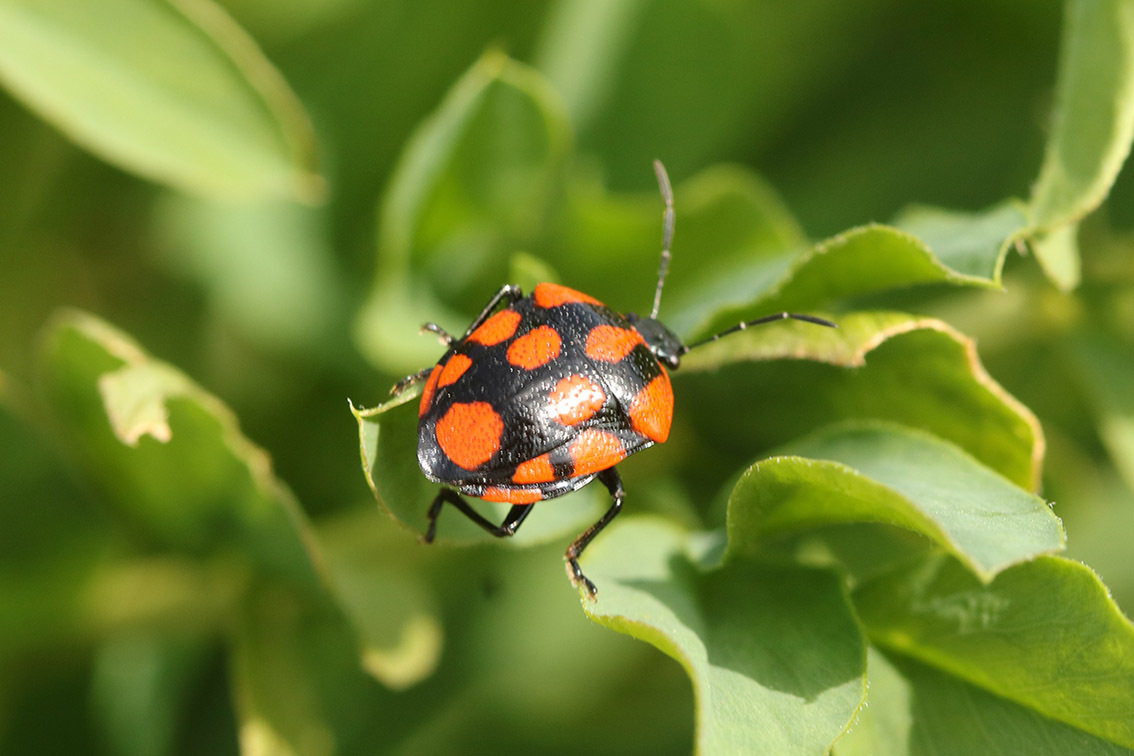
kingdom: Animalia
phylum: Arthropoda
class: Insecta
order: Hemiptera
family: Pentatomidae
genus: Stiretrus
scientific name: Stiretrus
